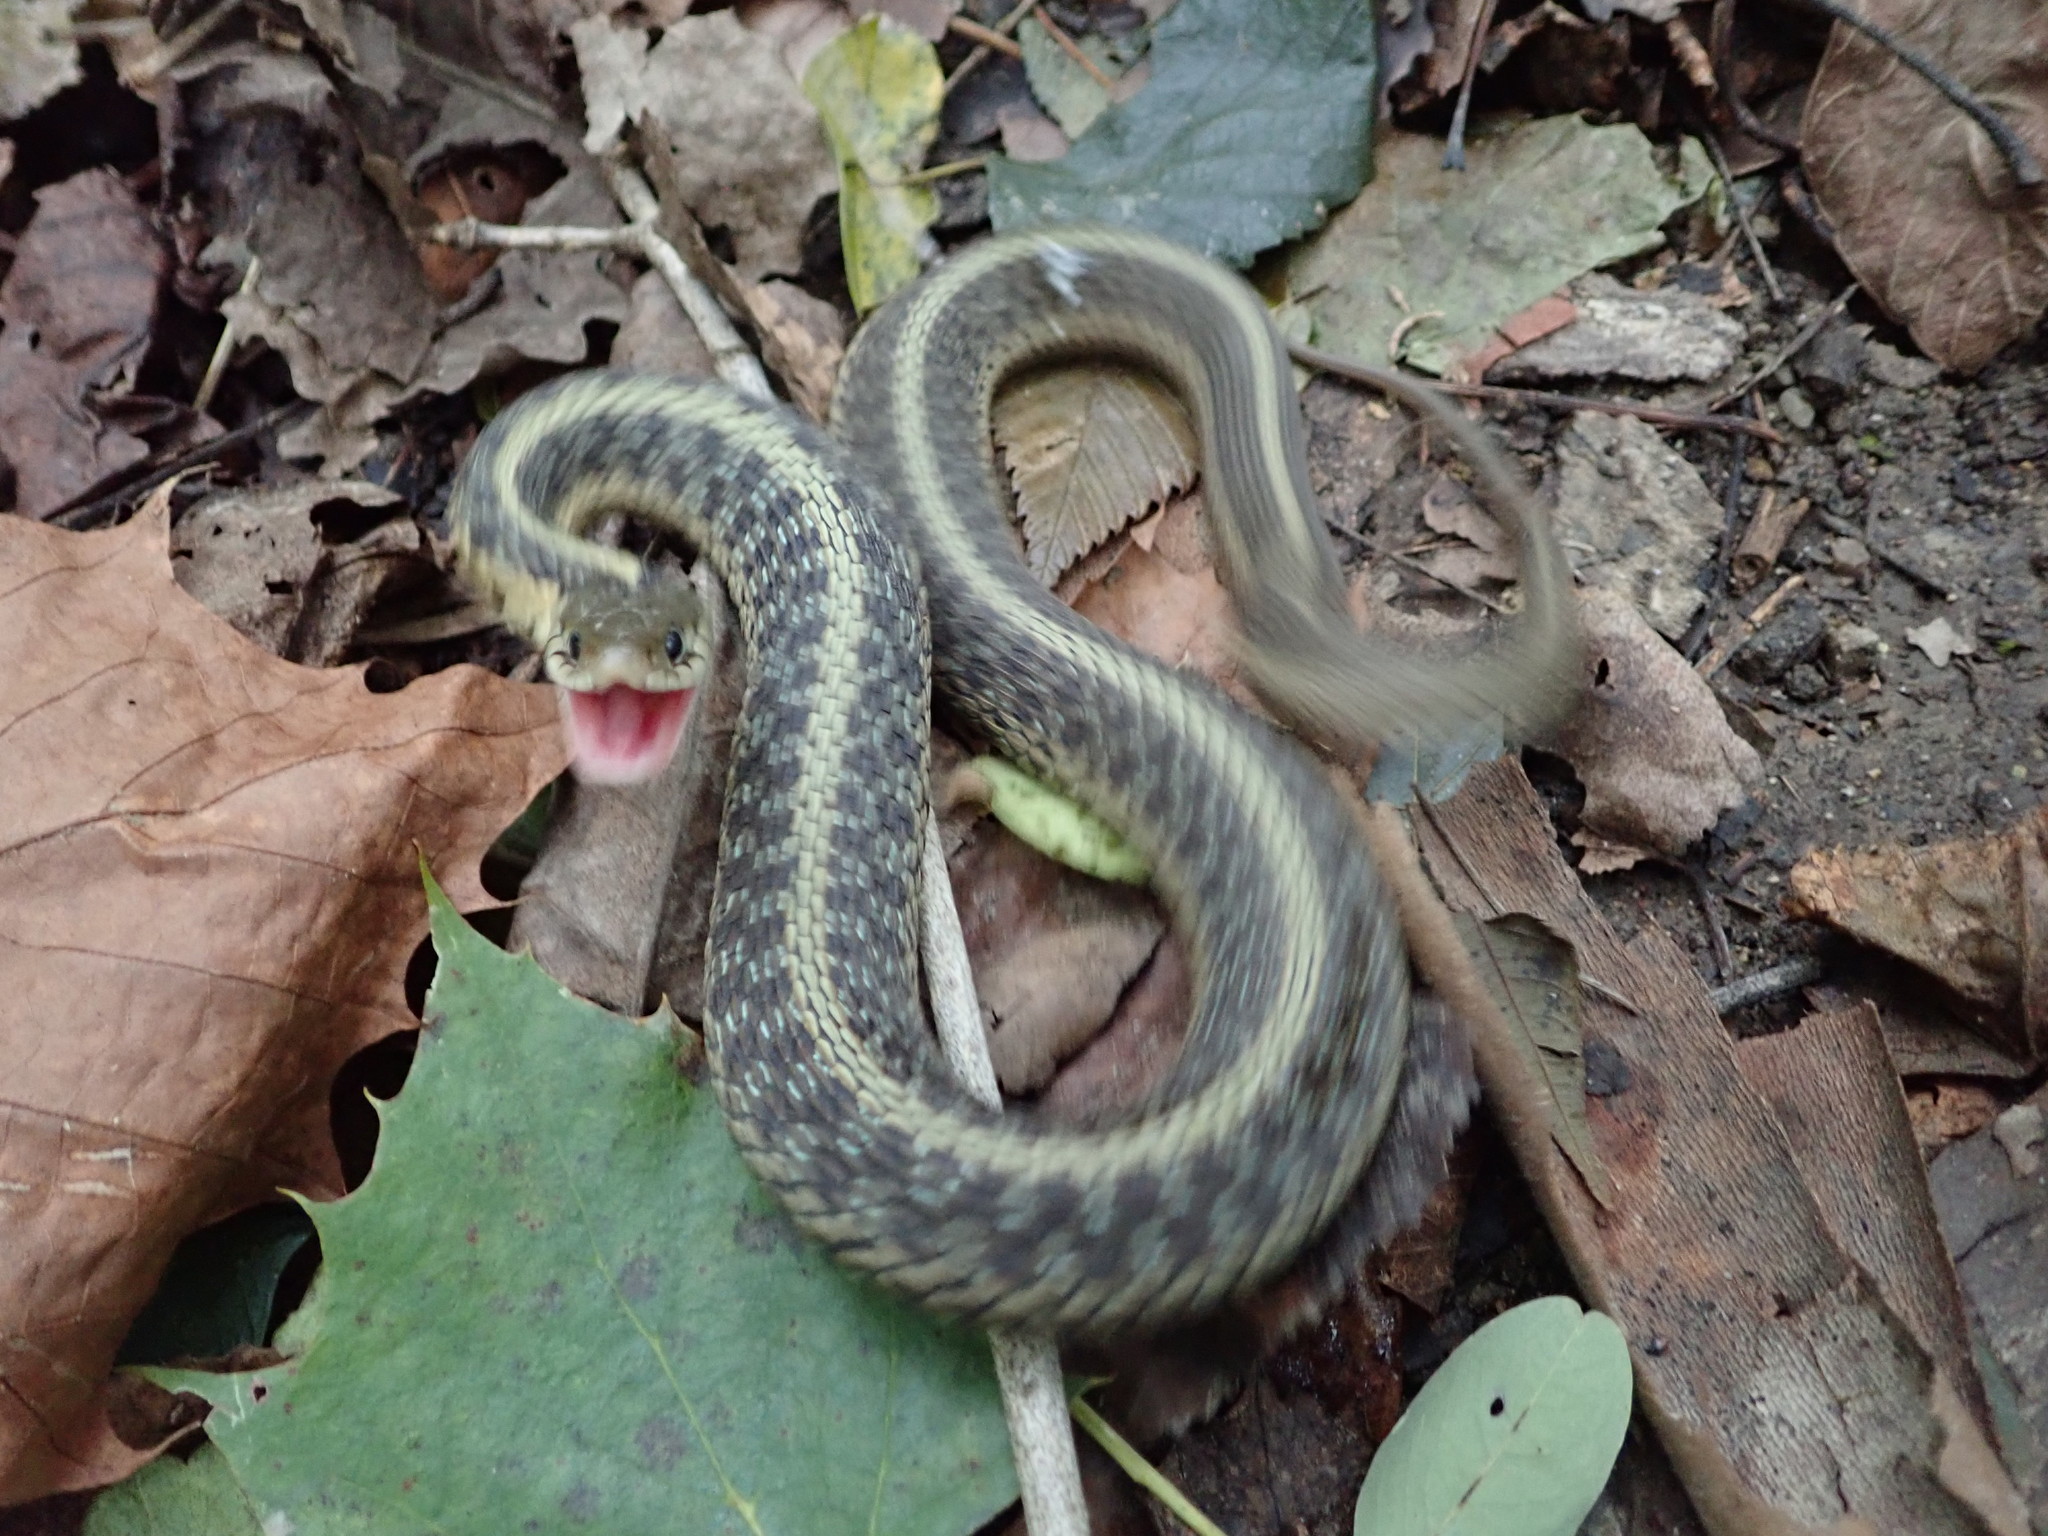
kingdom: Animalia
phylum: Chordata
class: Squamata
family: Colubridae
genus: Thamnophis
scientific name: Thamnophis sirtalis
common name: Common garter snake
